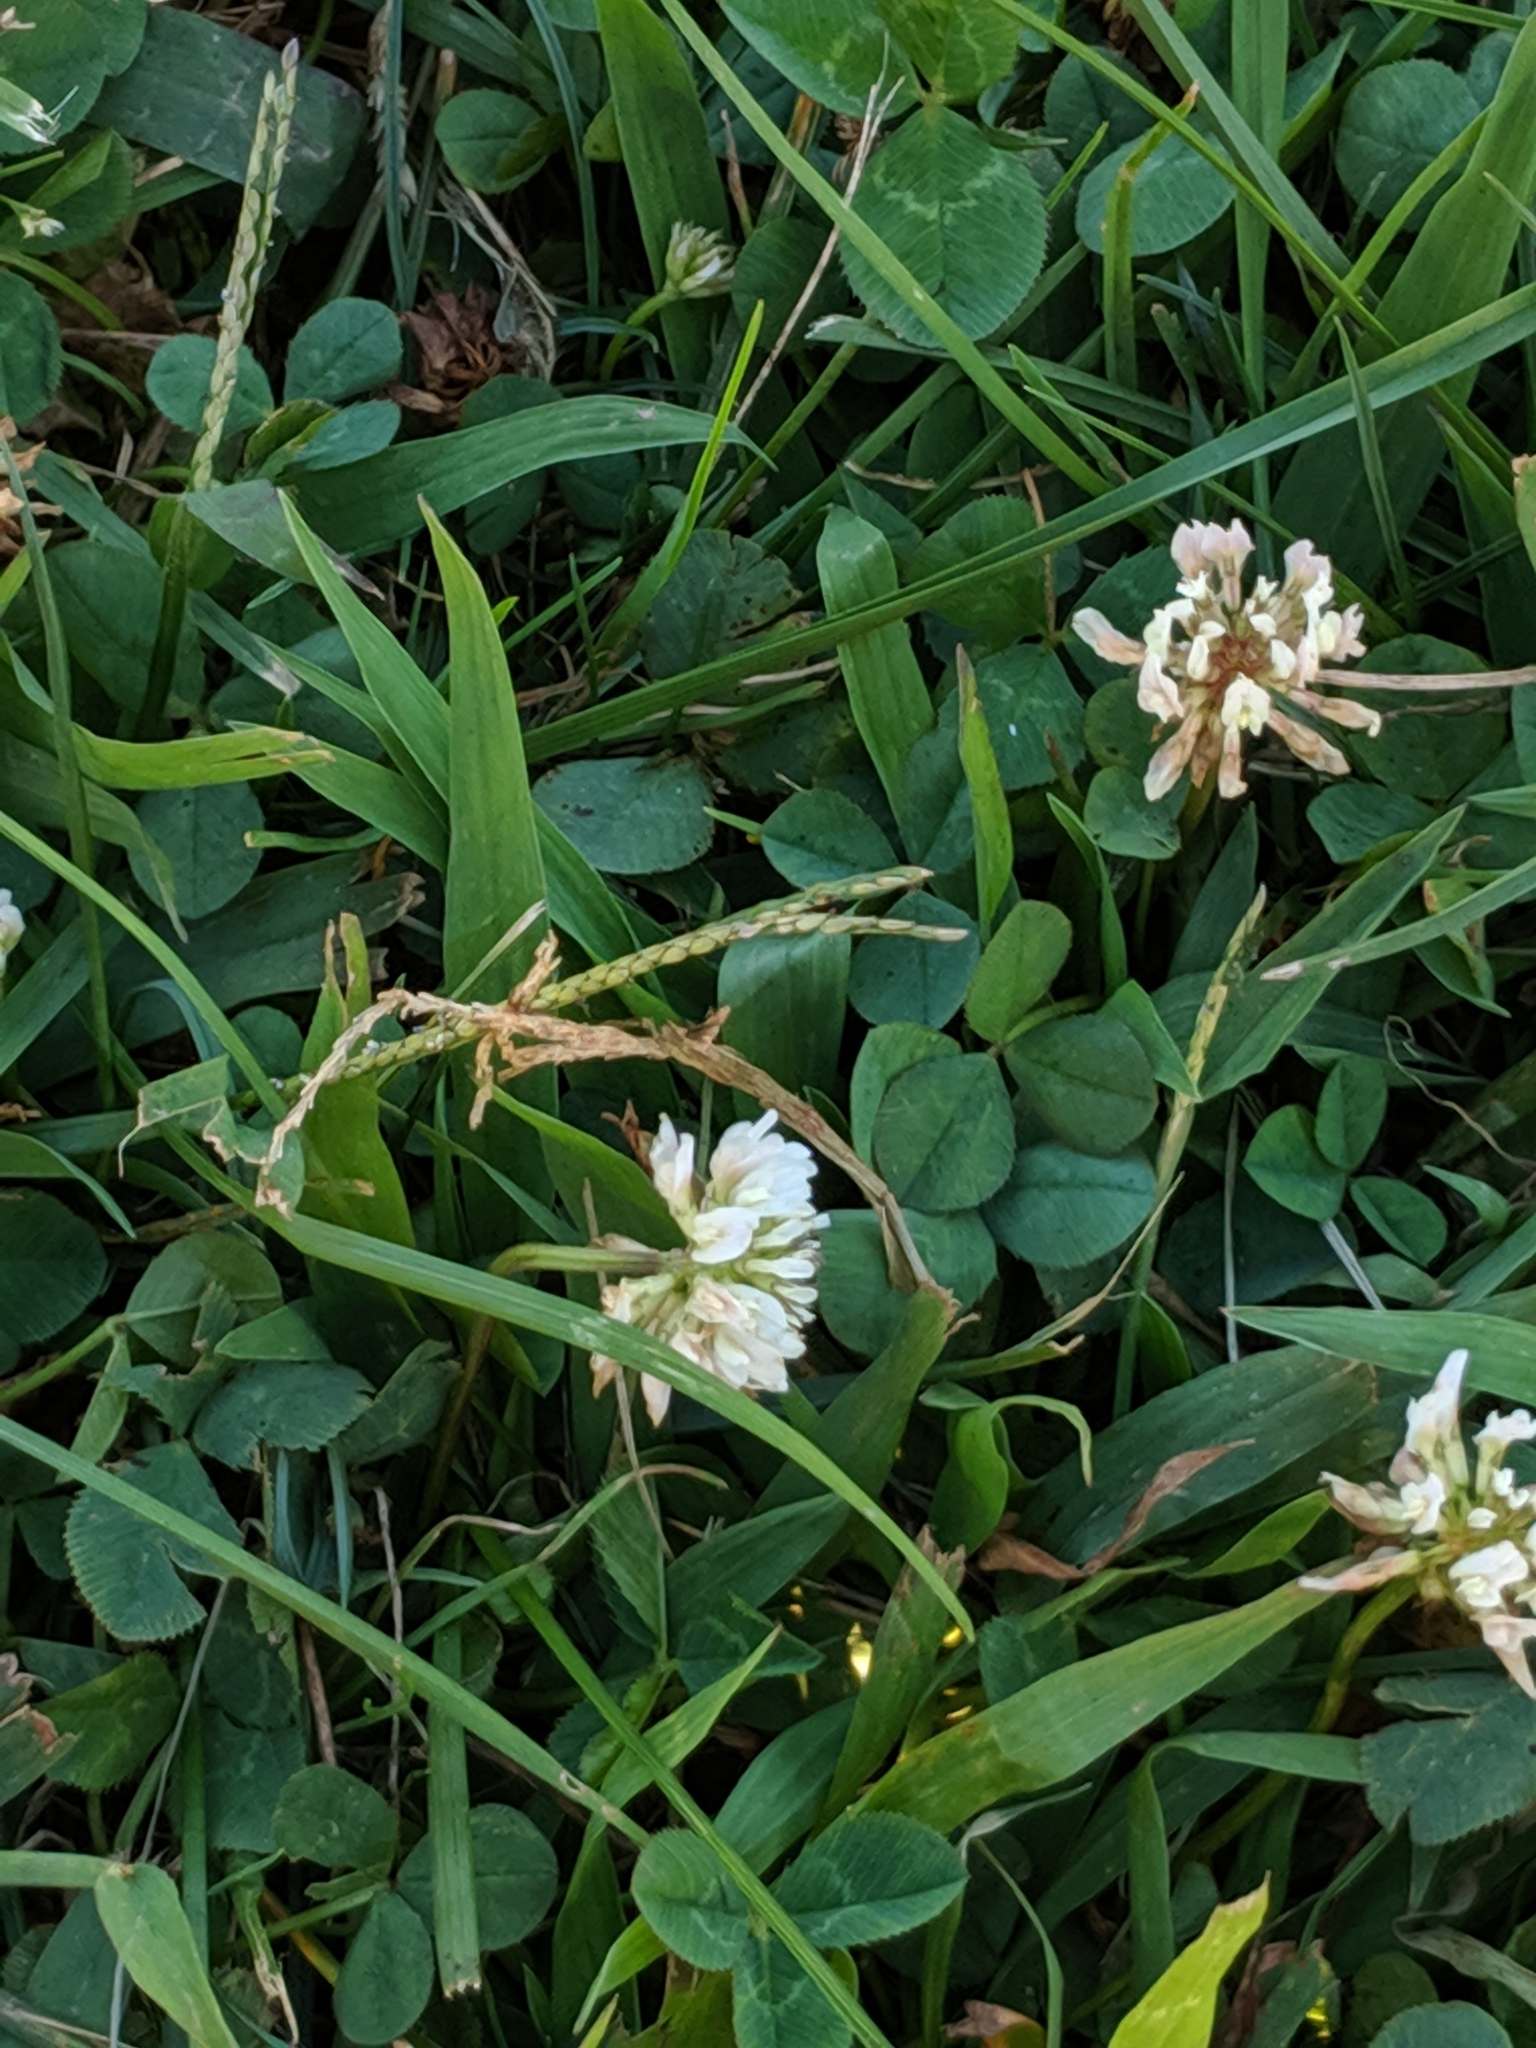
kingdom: Plantae
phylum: Tracheophyta
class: Magnoliopsida
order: Fabales
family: Fabaceae
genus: Trifolium
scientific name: Trifolium repens
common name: White clover
